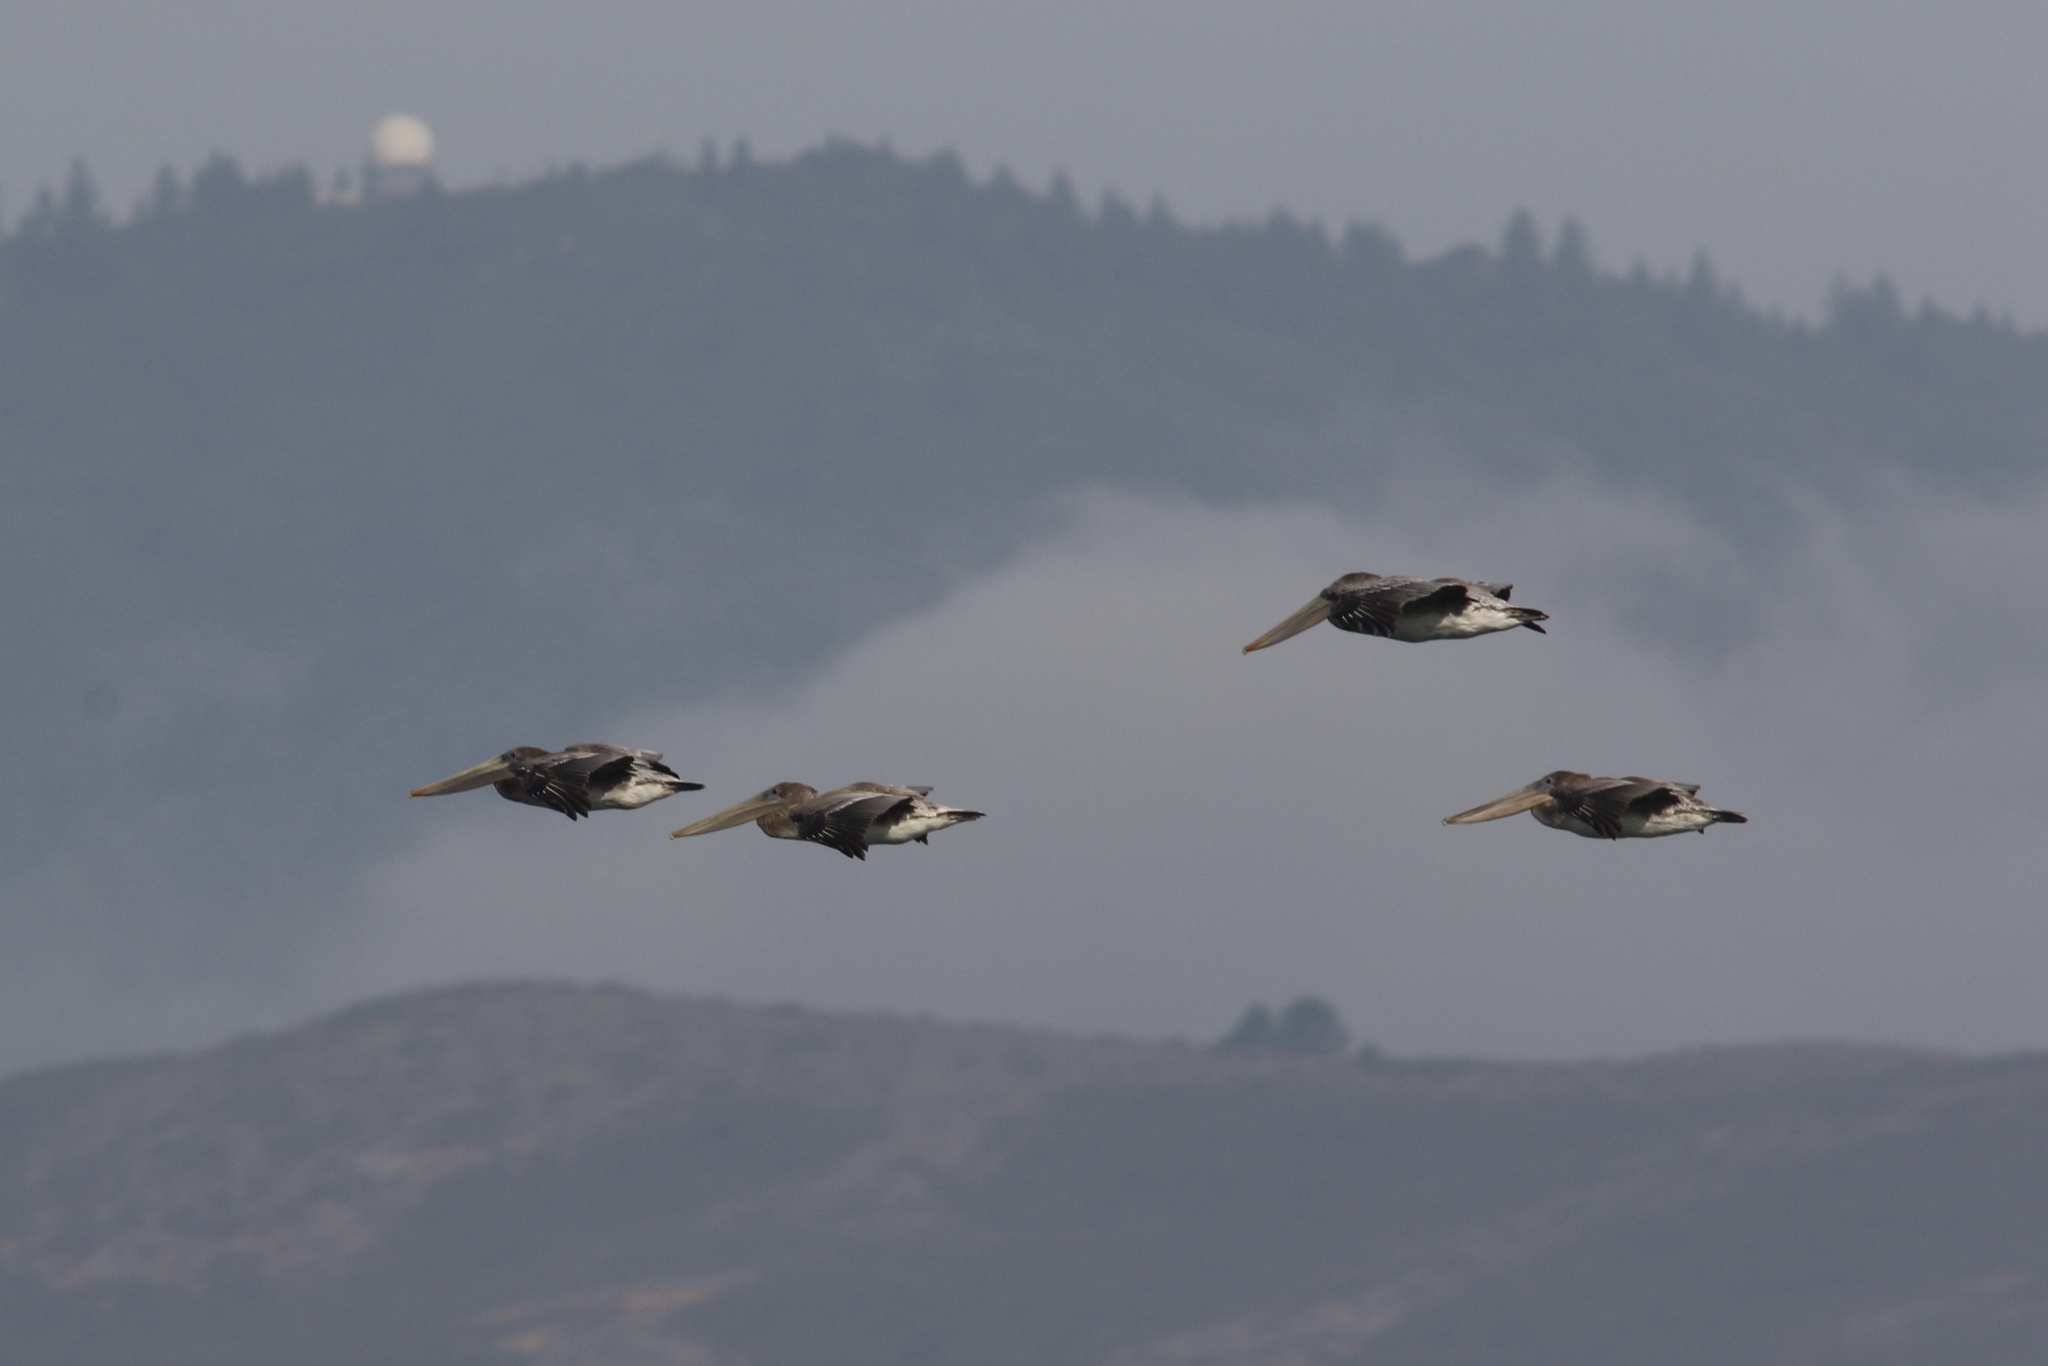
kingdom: Animalia
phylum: Chordata
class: Aves
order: Pelecaniformes
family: Pelecanidae
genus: Pelecanus
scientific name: Pelecanus occidentalis
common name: Brown pelican
